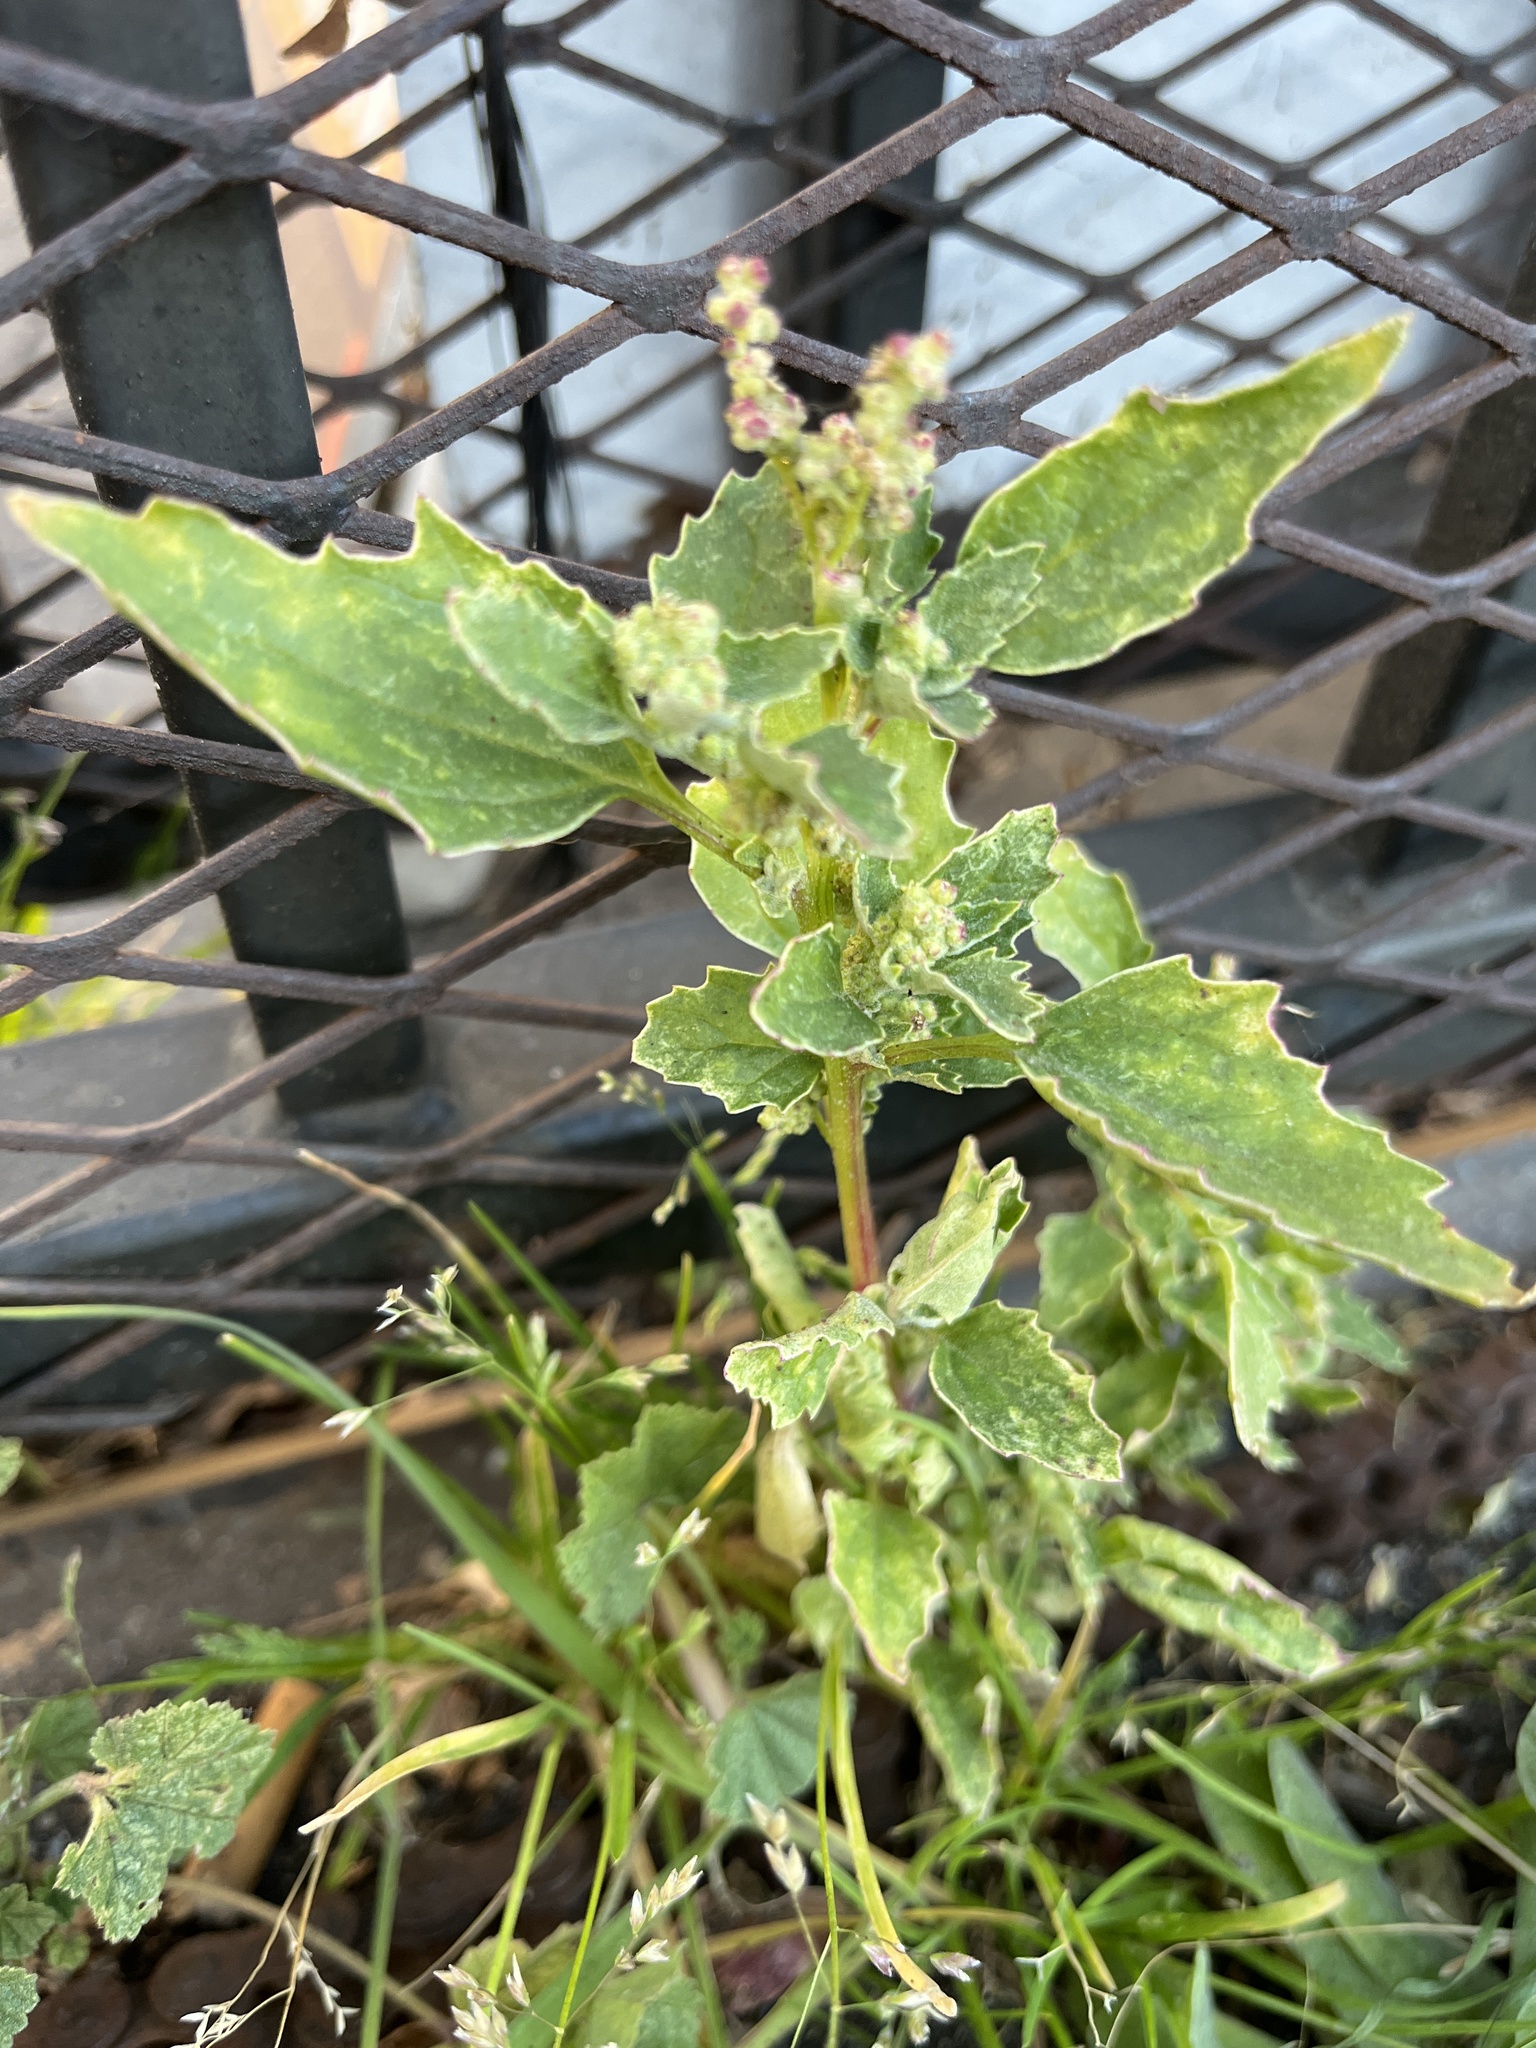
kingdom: Plantae
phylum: Tracheophyta
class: Magnoliopsida
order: Caryophyllales
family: Amaranthaceae
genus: Chenopodiastrum
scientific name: Chenopodiastrum murale
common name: Sowbane
